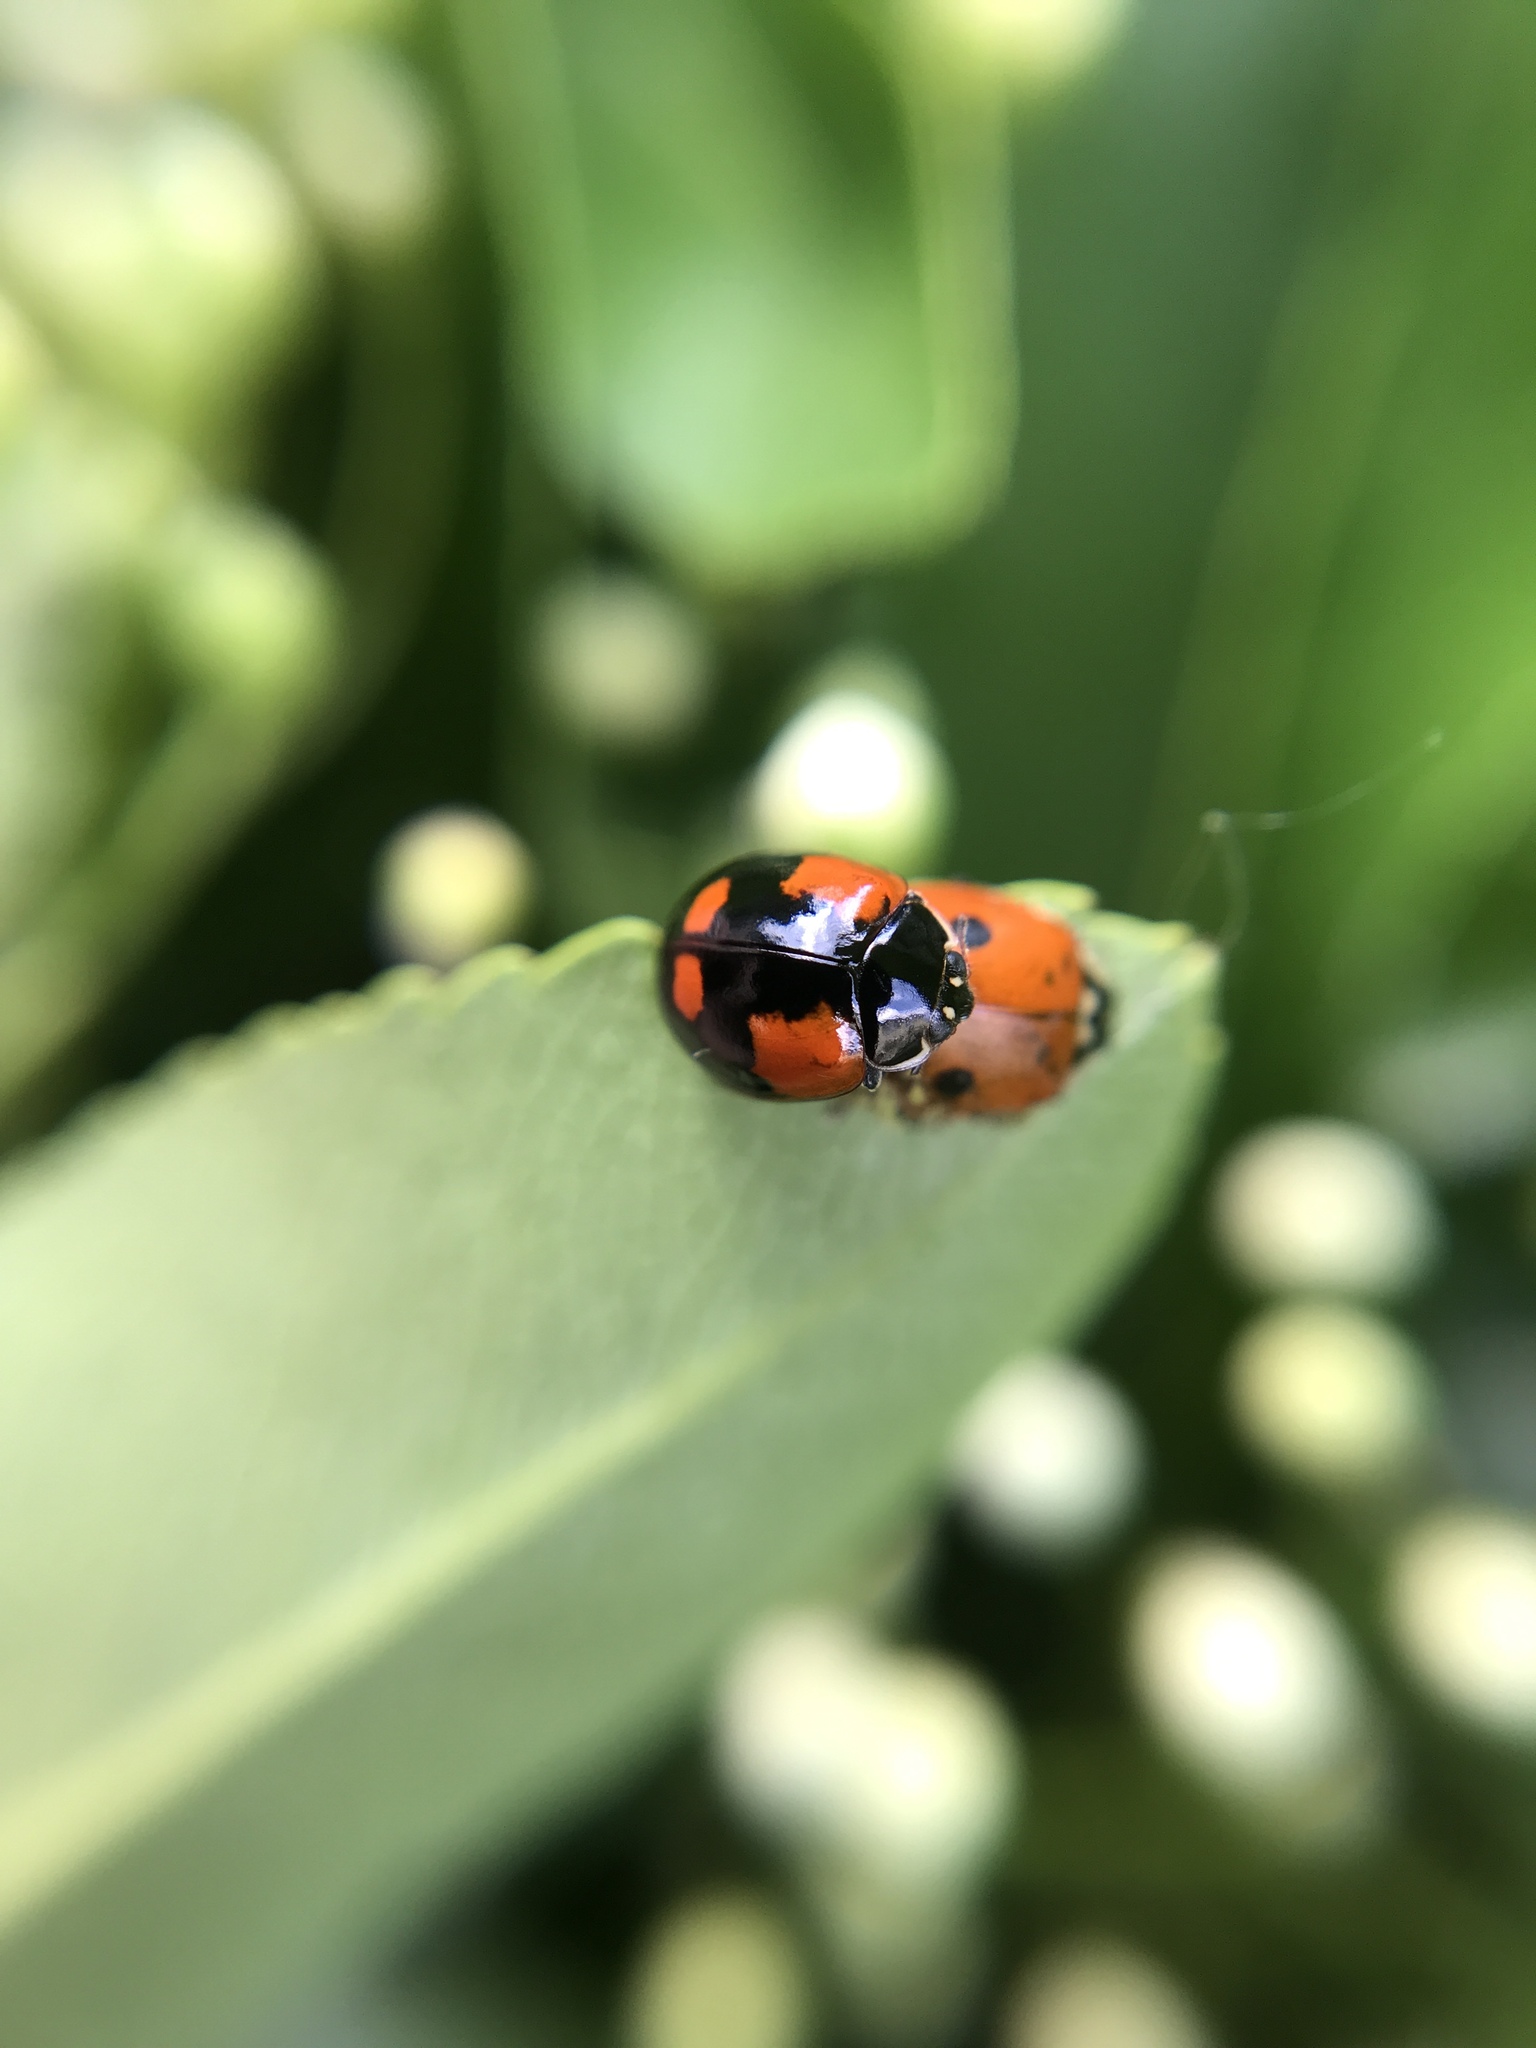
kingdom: Animalia
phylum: Arthropoda
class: Insecta
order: Coleoptera
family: Coccinellidae
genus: Adalia
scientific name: Adalia bipunctata
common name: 2-spot ladybird
